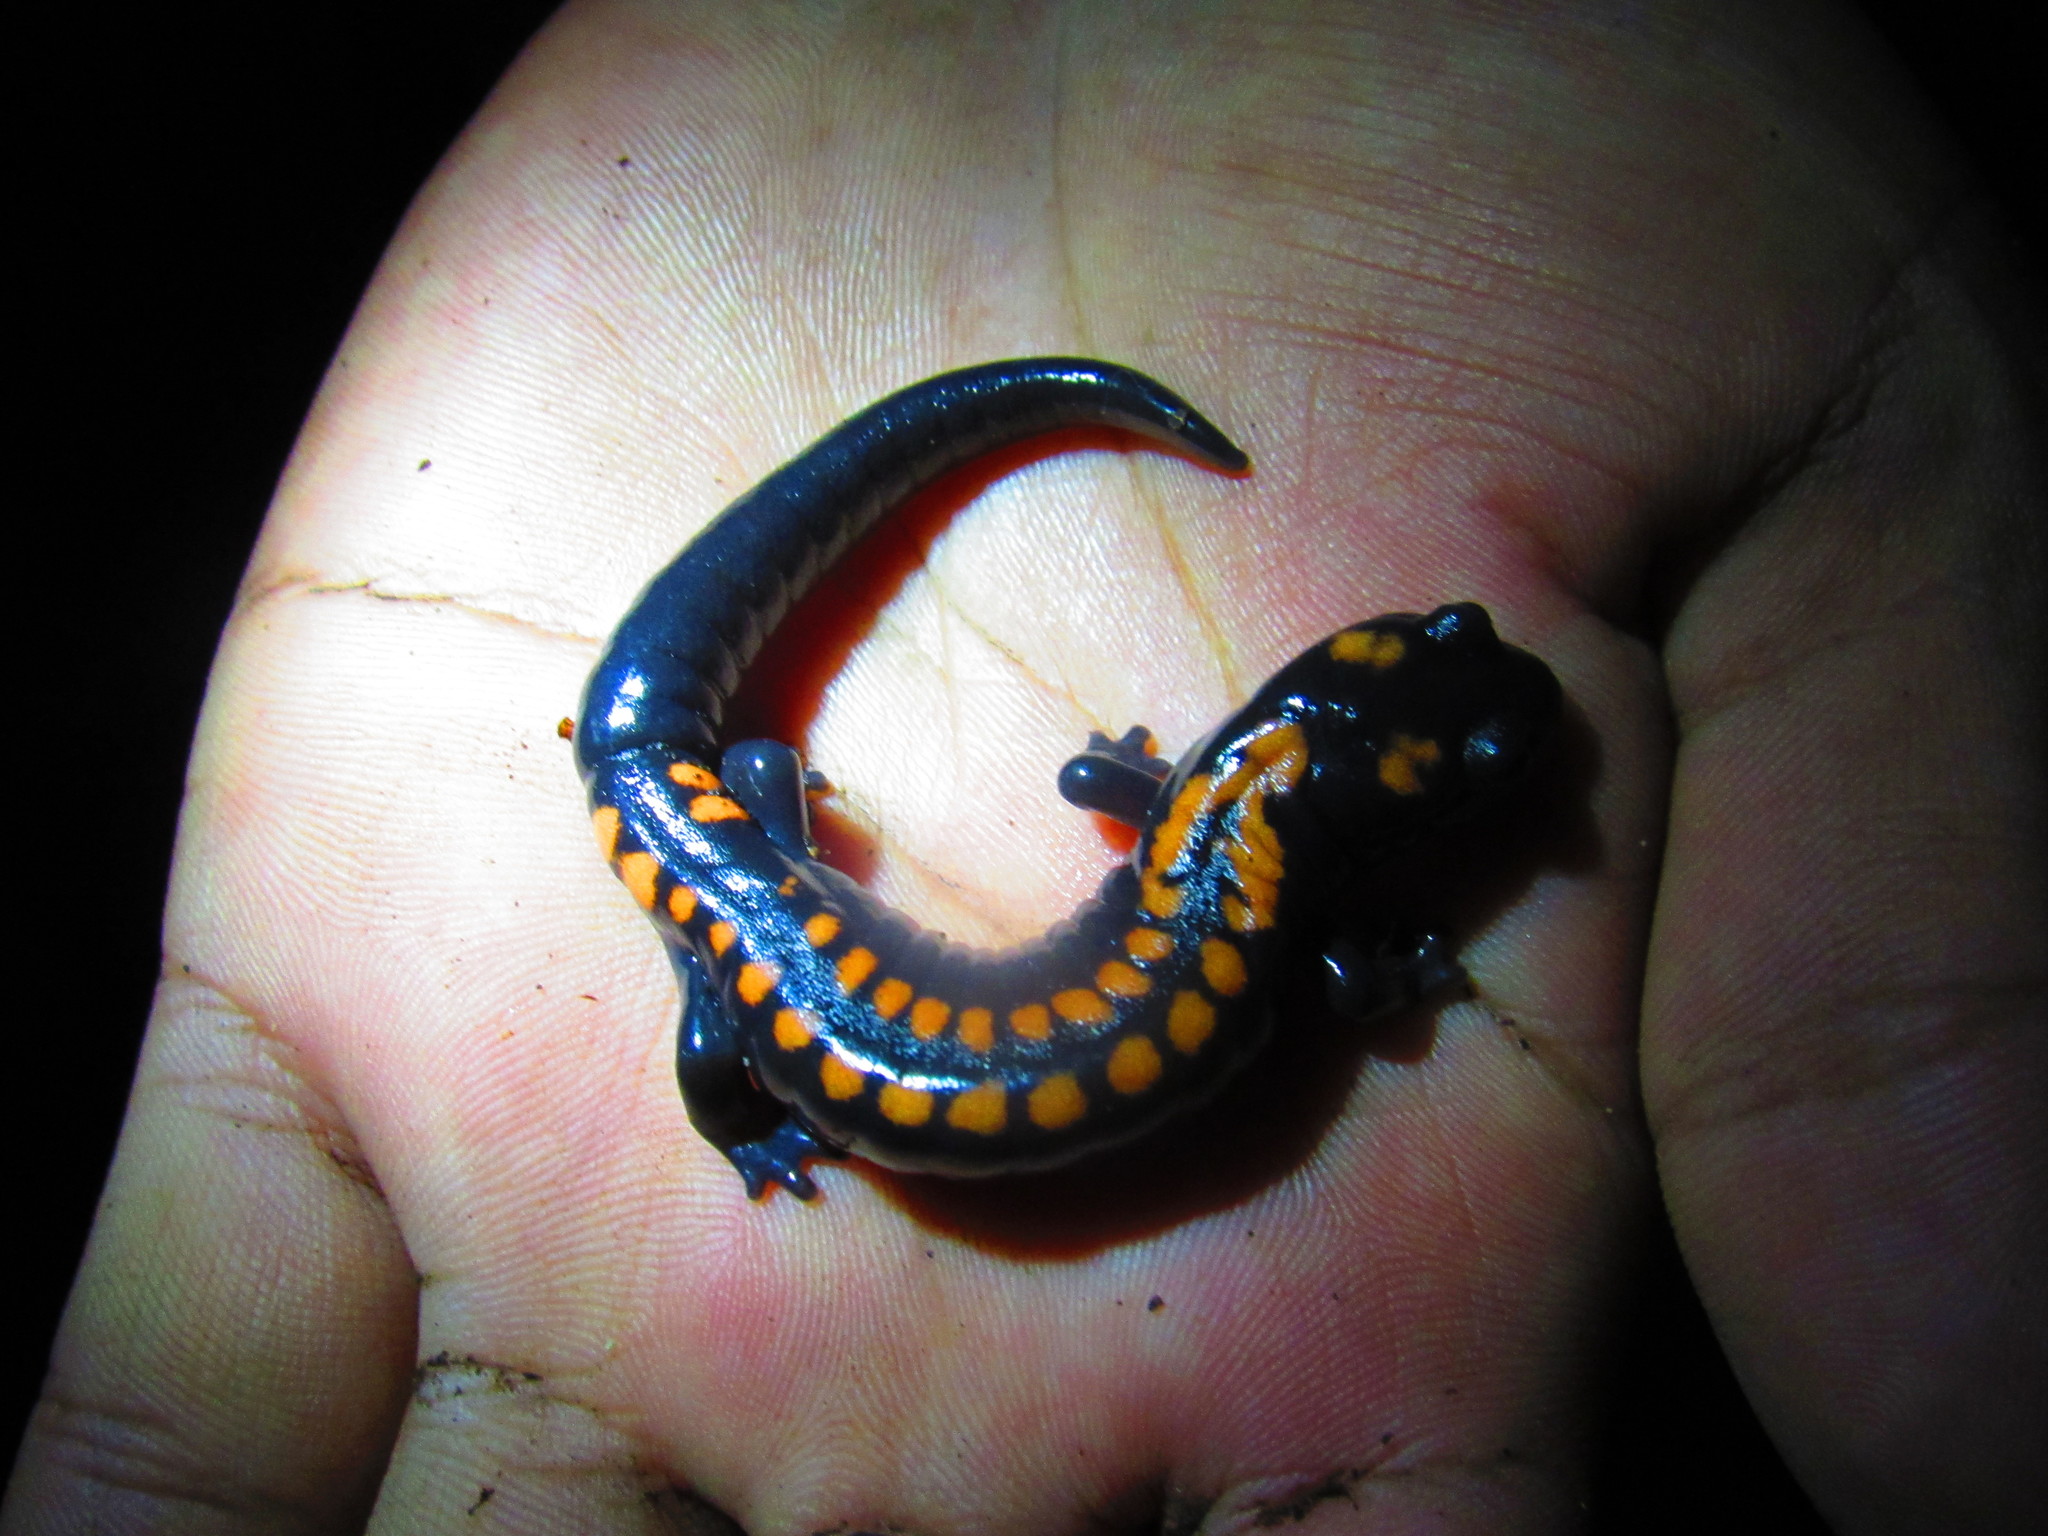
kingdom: Animalia
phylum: Chordata
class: Amphibia
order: Caudata
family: Plethodontidae
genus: Isthmura
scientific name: Isthmura bellii
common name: Bell's false brook salamander
